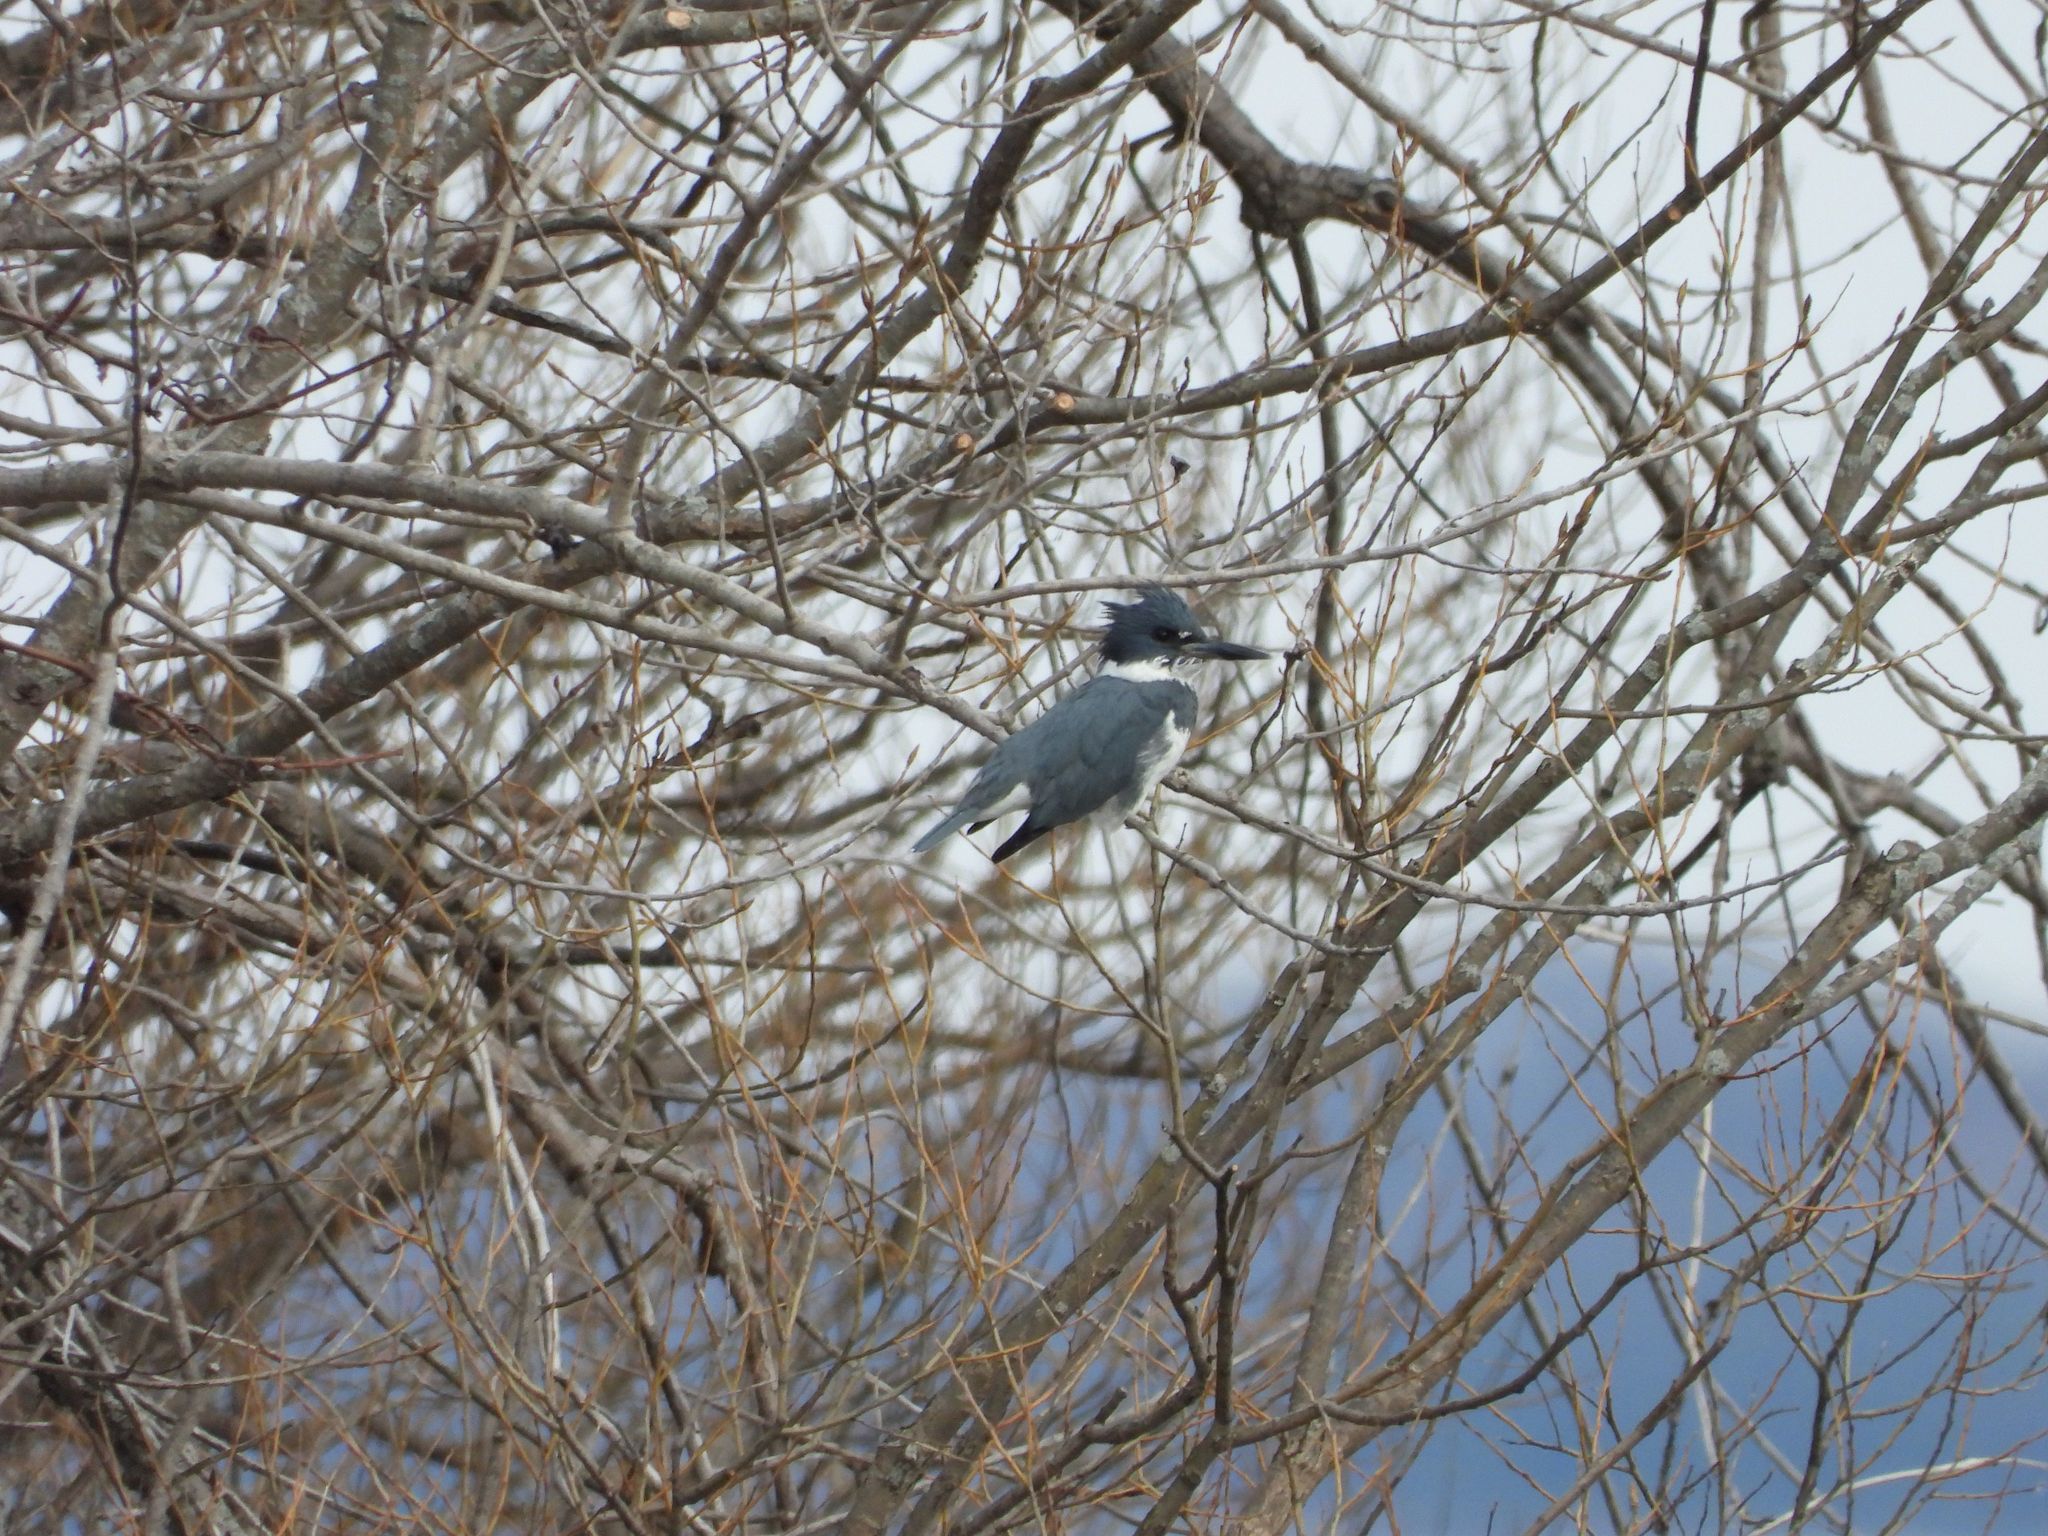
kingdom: Animalia
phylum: Chordata
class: Aves
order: Coraciiformes
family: Alcedinidae
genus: Megaceryle
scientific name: Megaceryle alcyon
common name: Belted kingfisher
